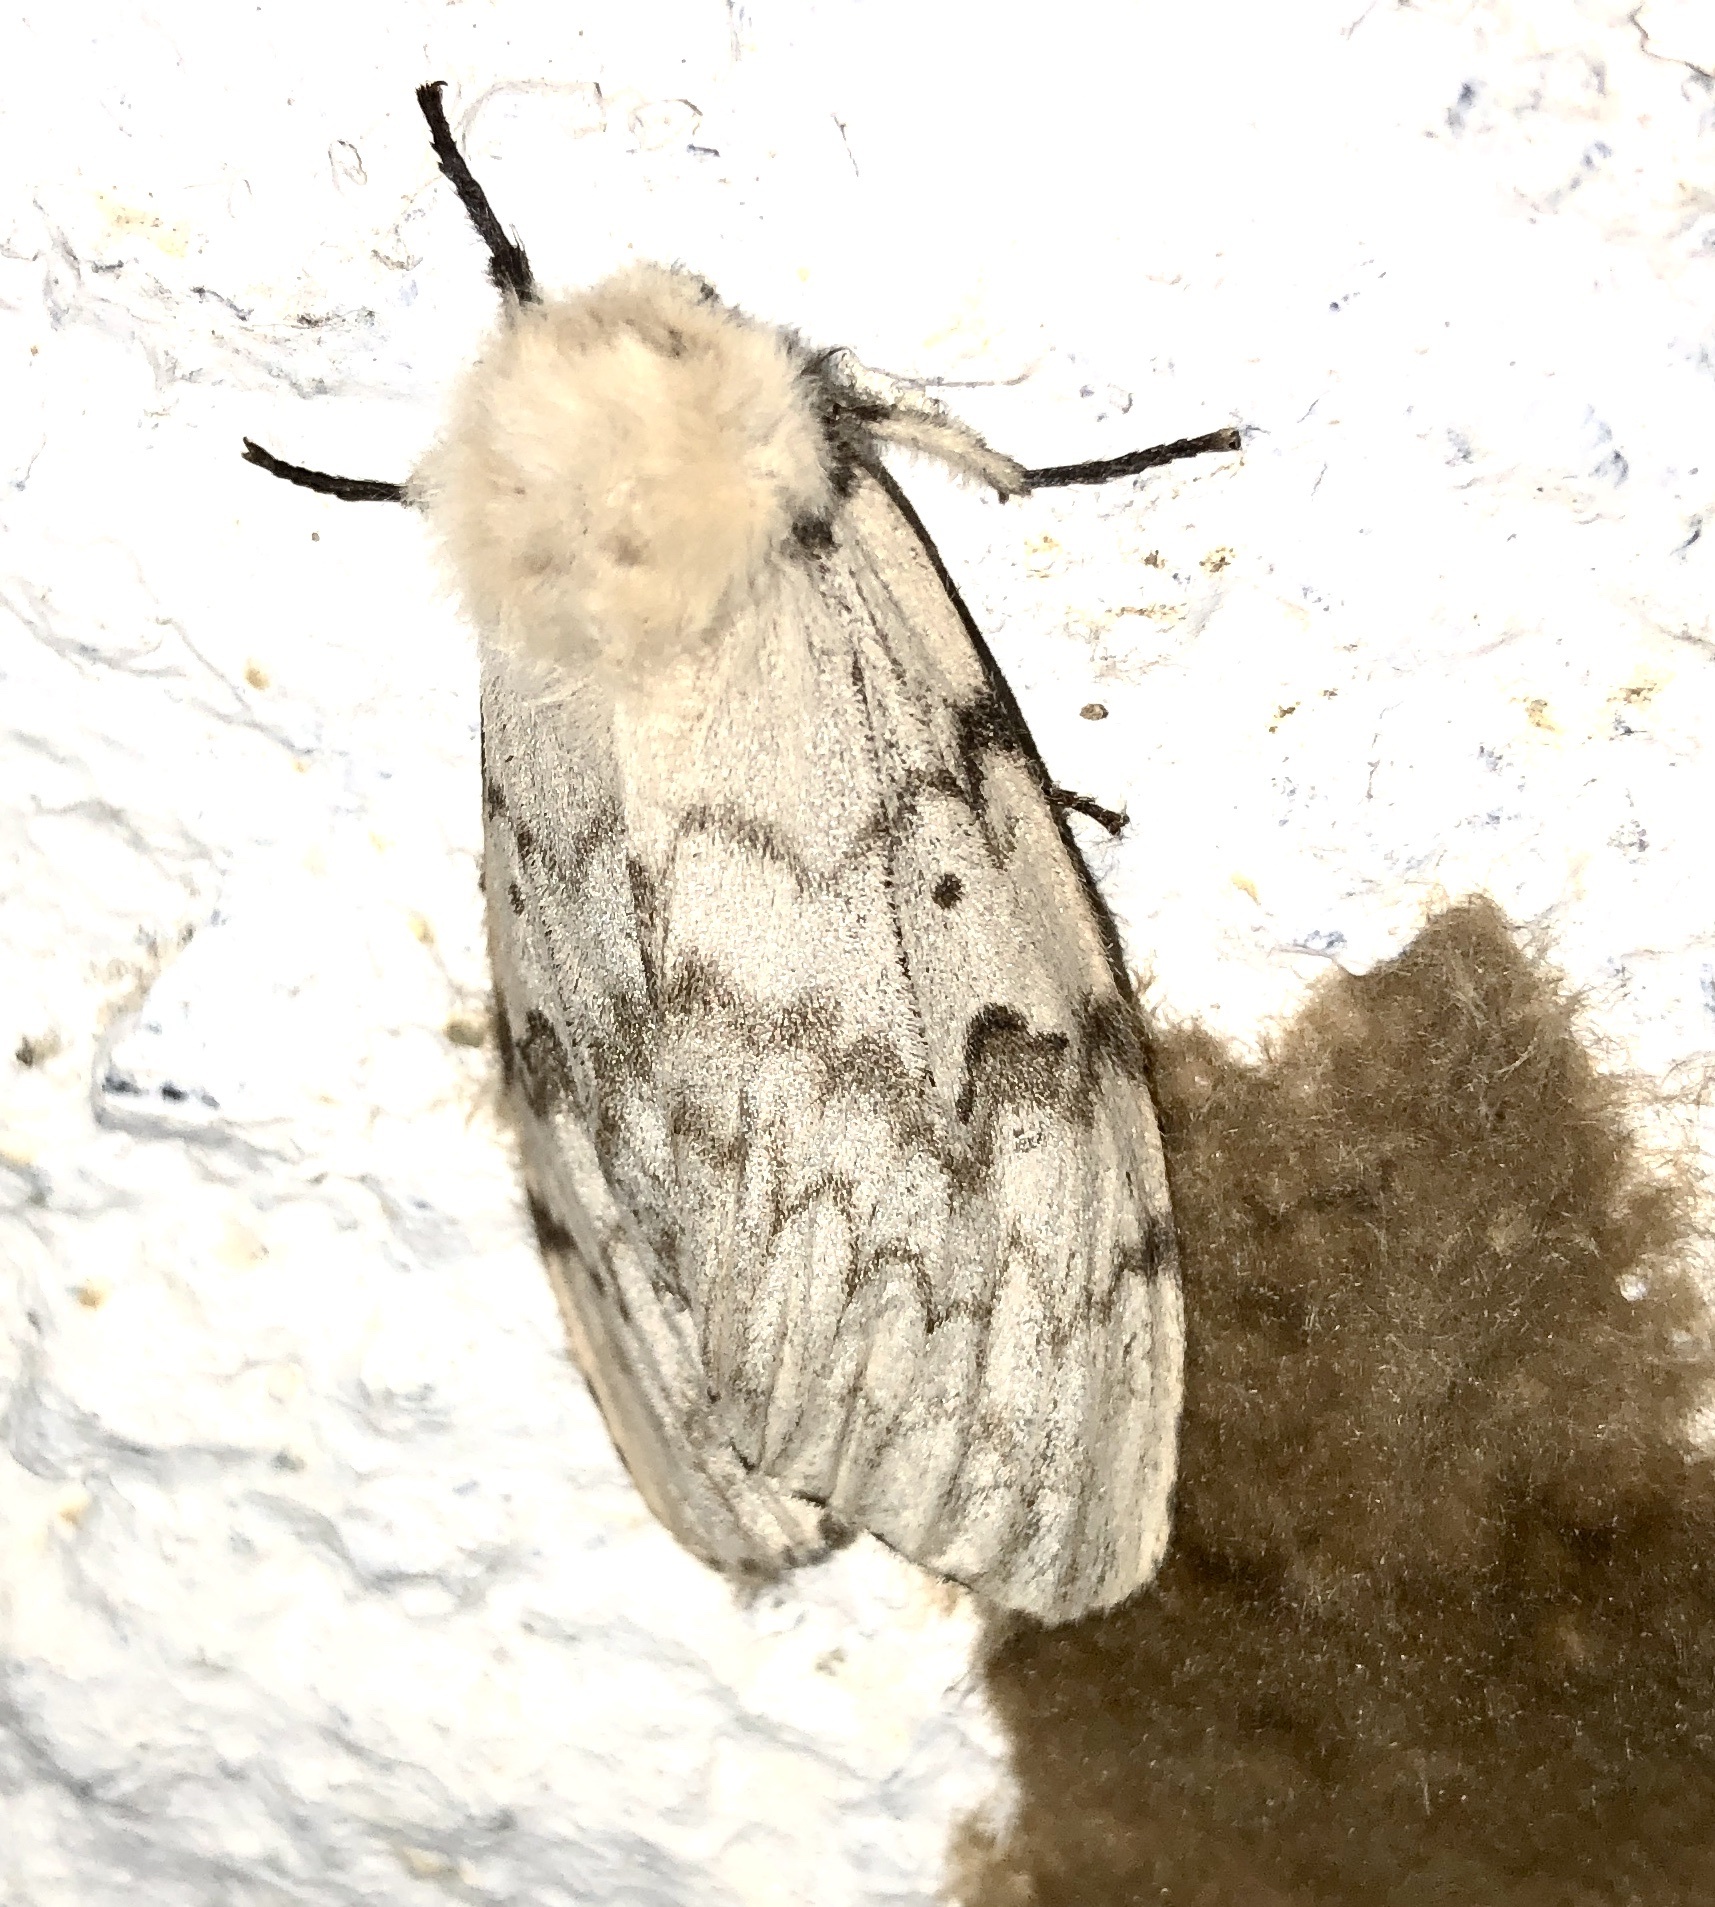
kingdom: Animalia
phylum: Arthropoda
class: Insecta
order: Lepidoptera
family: Erebidae
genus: Lymantria
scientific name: Lymantria dispar
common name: Gypsy moth
